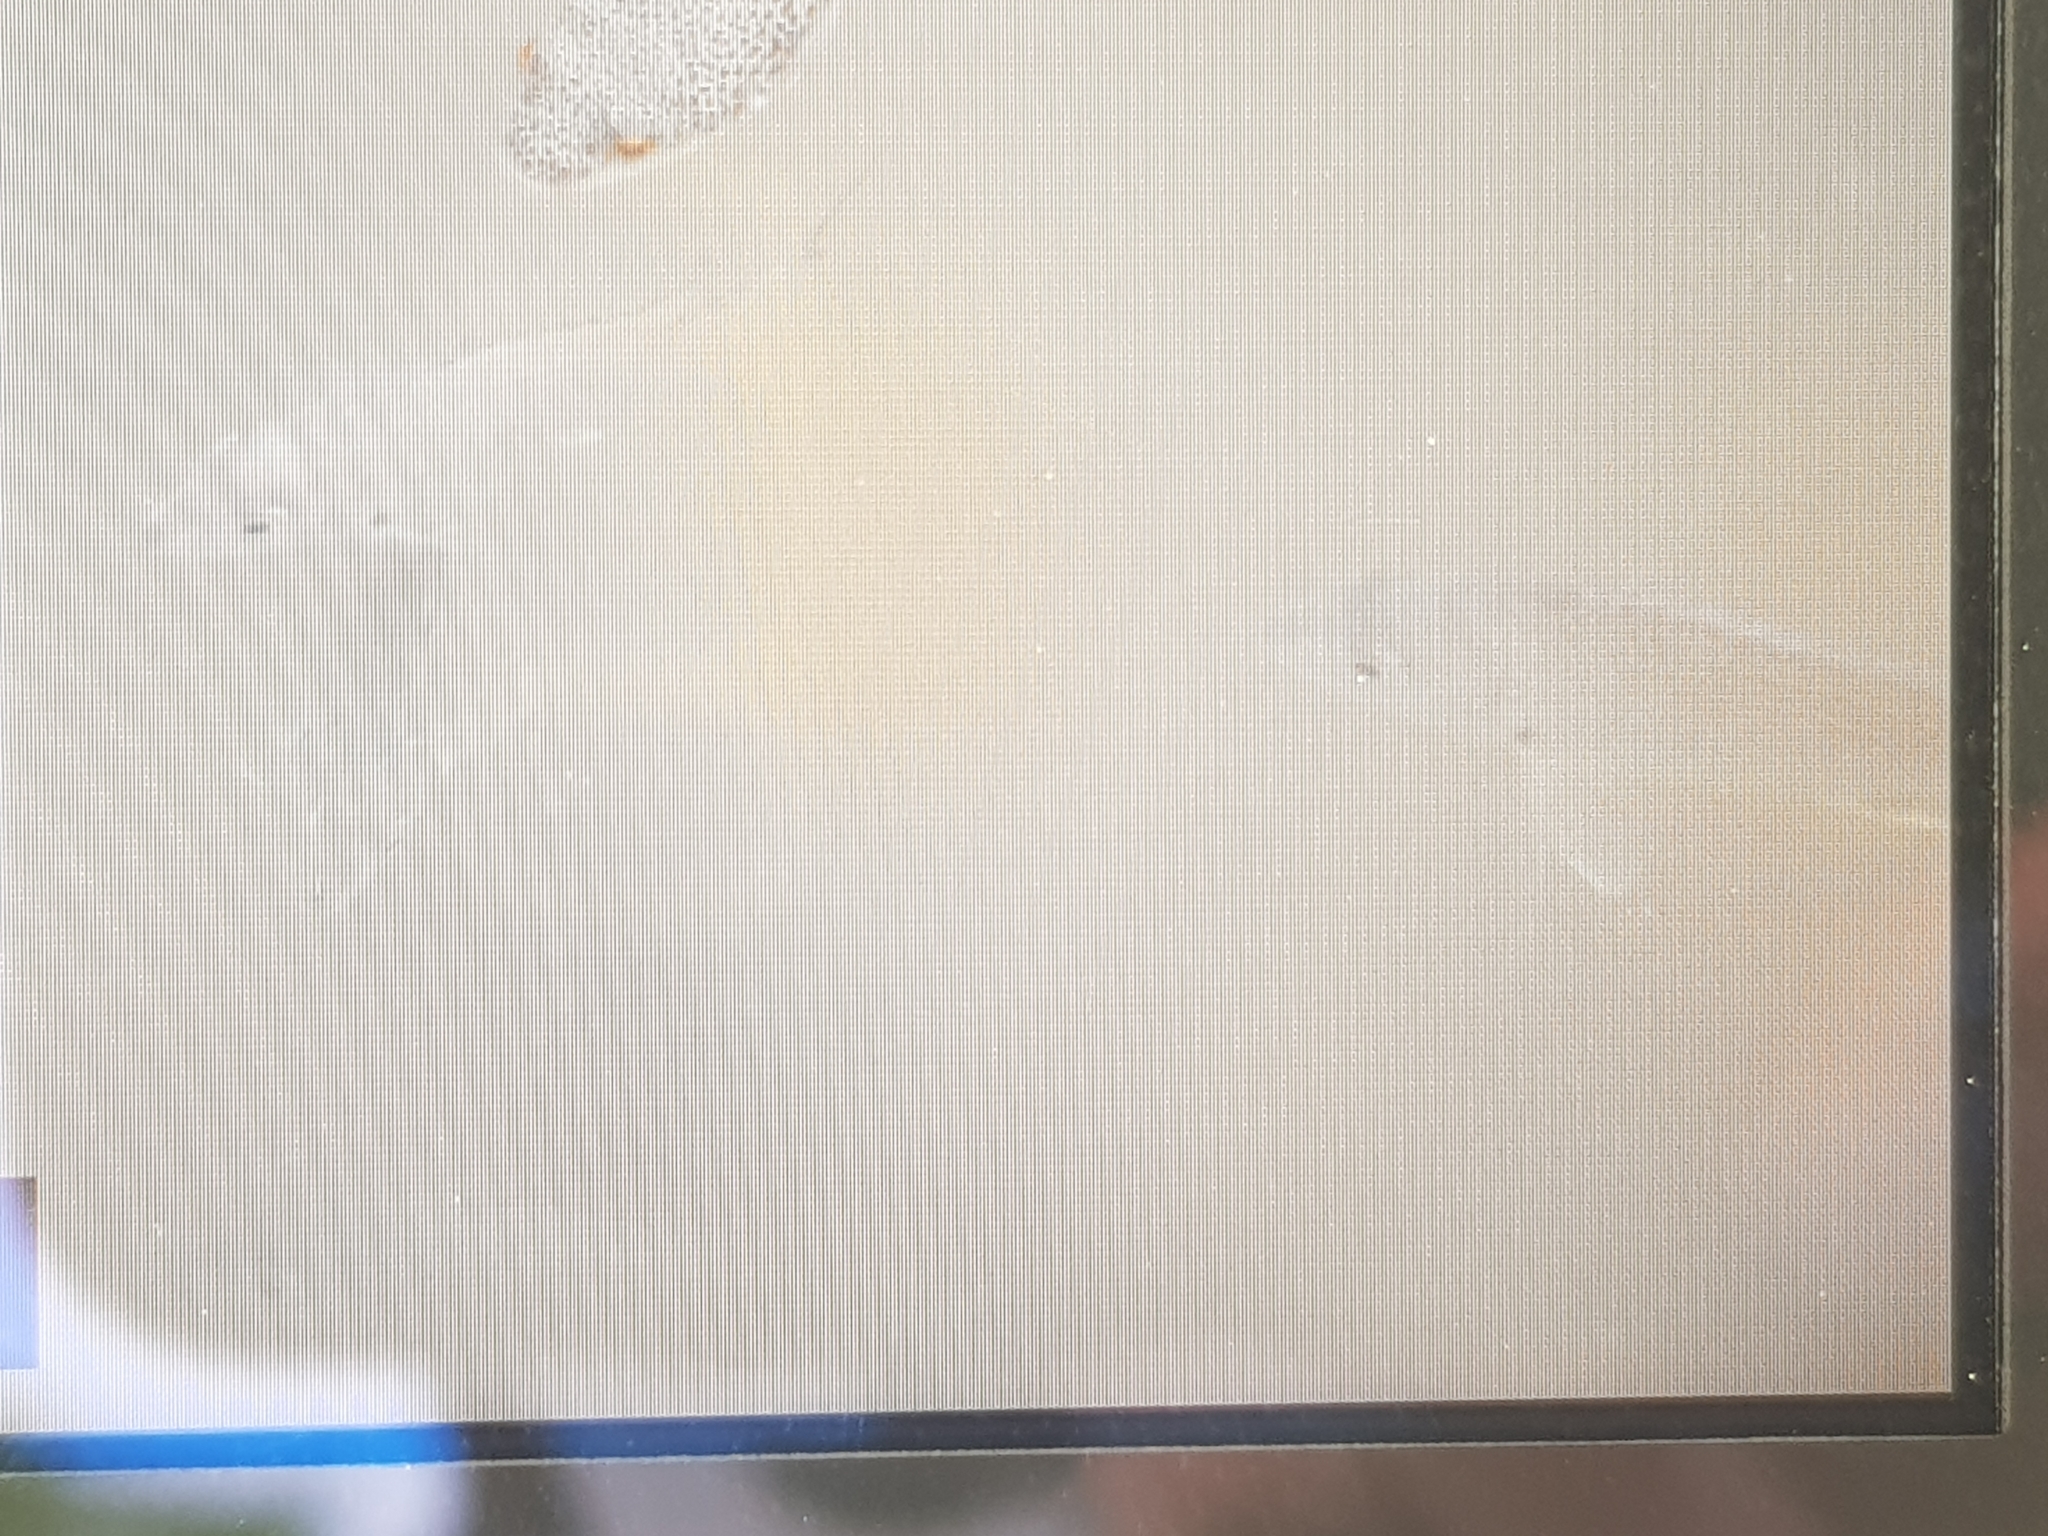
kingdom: Animalia
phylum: Chordata
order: Perciformes
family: Sparidae
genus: Acanthopagrus
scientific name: Acanthopagrus australis
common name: Surf bream
